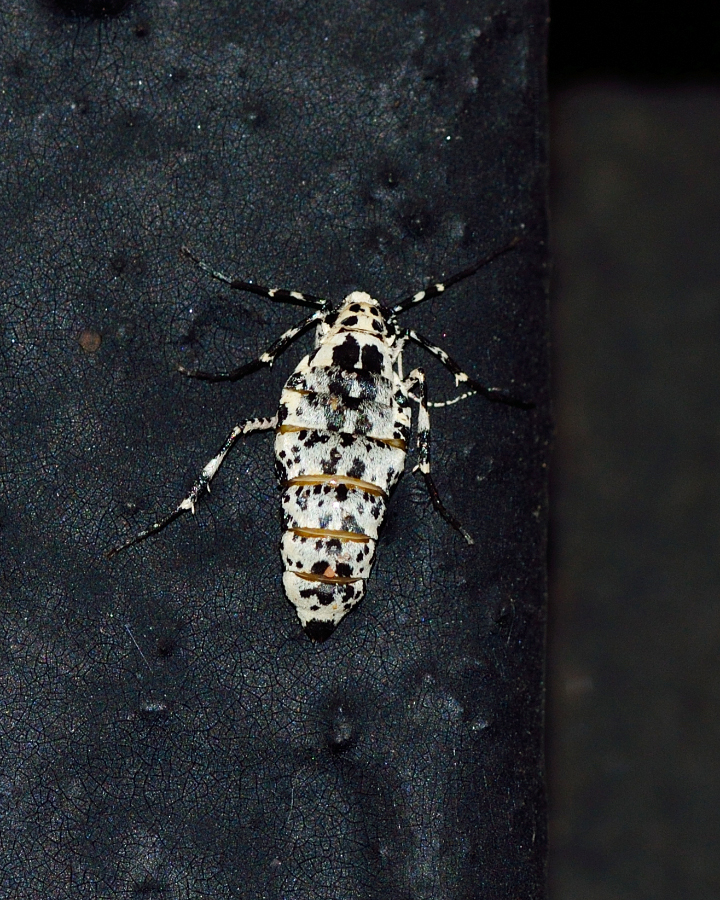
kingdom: Animalia
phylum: Arthropoda
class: Insecta
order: Lepidoptera
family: Geometridae
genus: Erannis
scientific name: Erannis defoliaria
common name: Mottled umber
